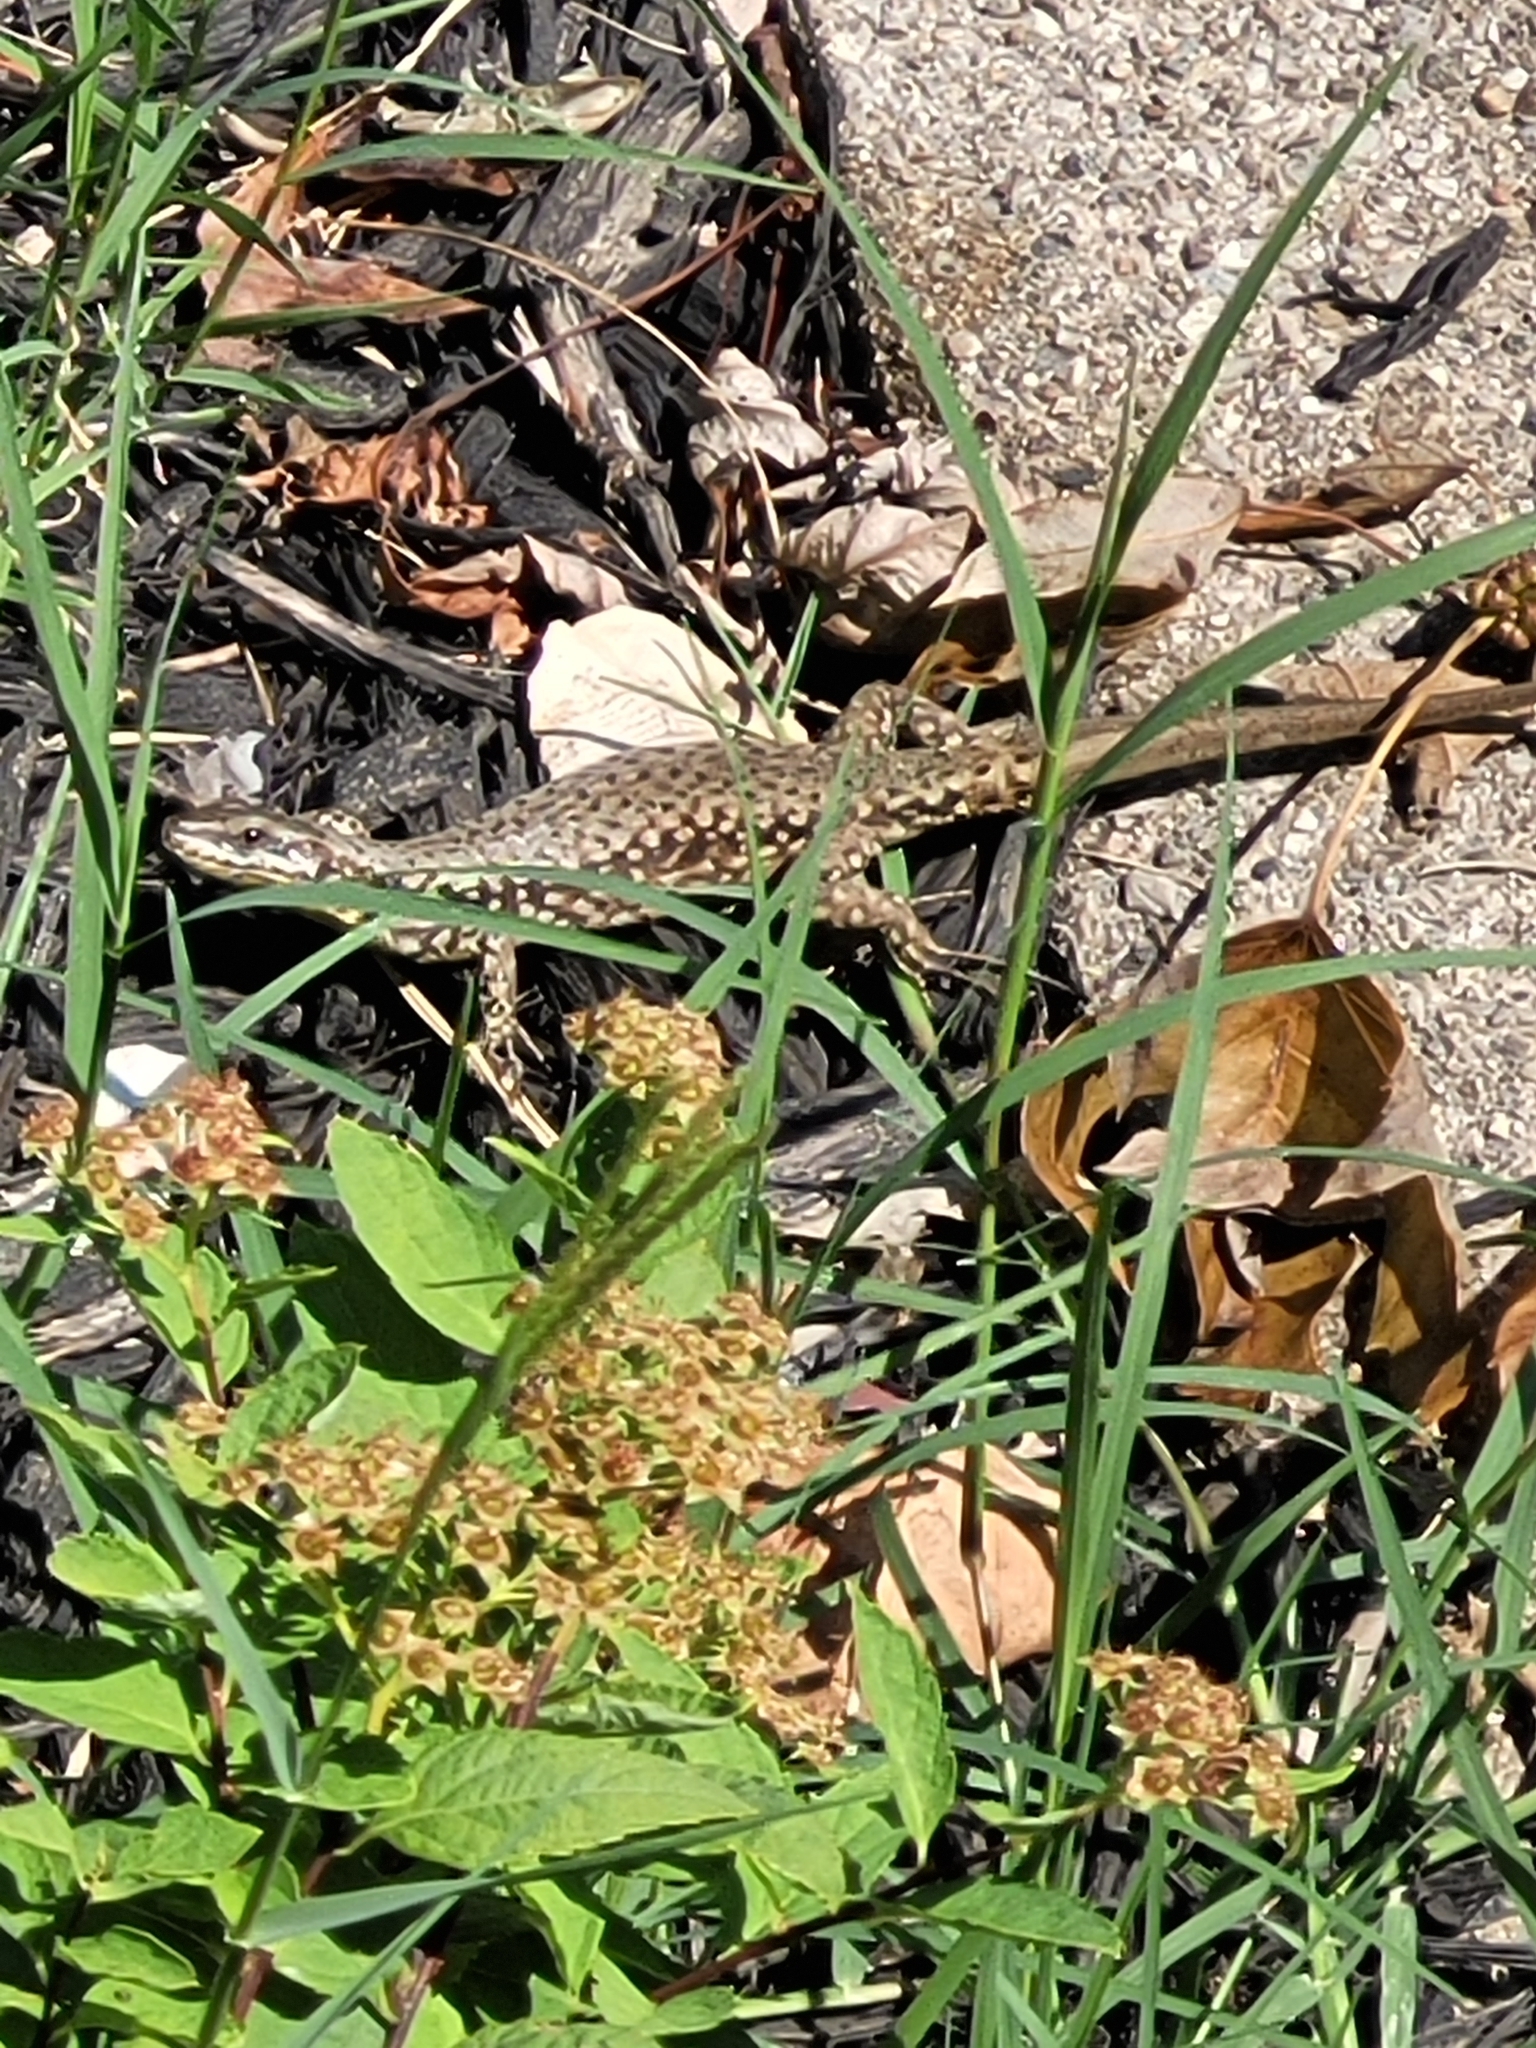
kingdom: Animalia
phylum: Chordata
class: Squamata
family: Lacertidae
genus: Podarcis
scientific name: Podarcis muralis
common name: Common wall lizard
